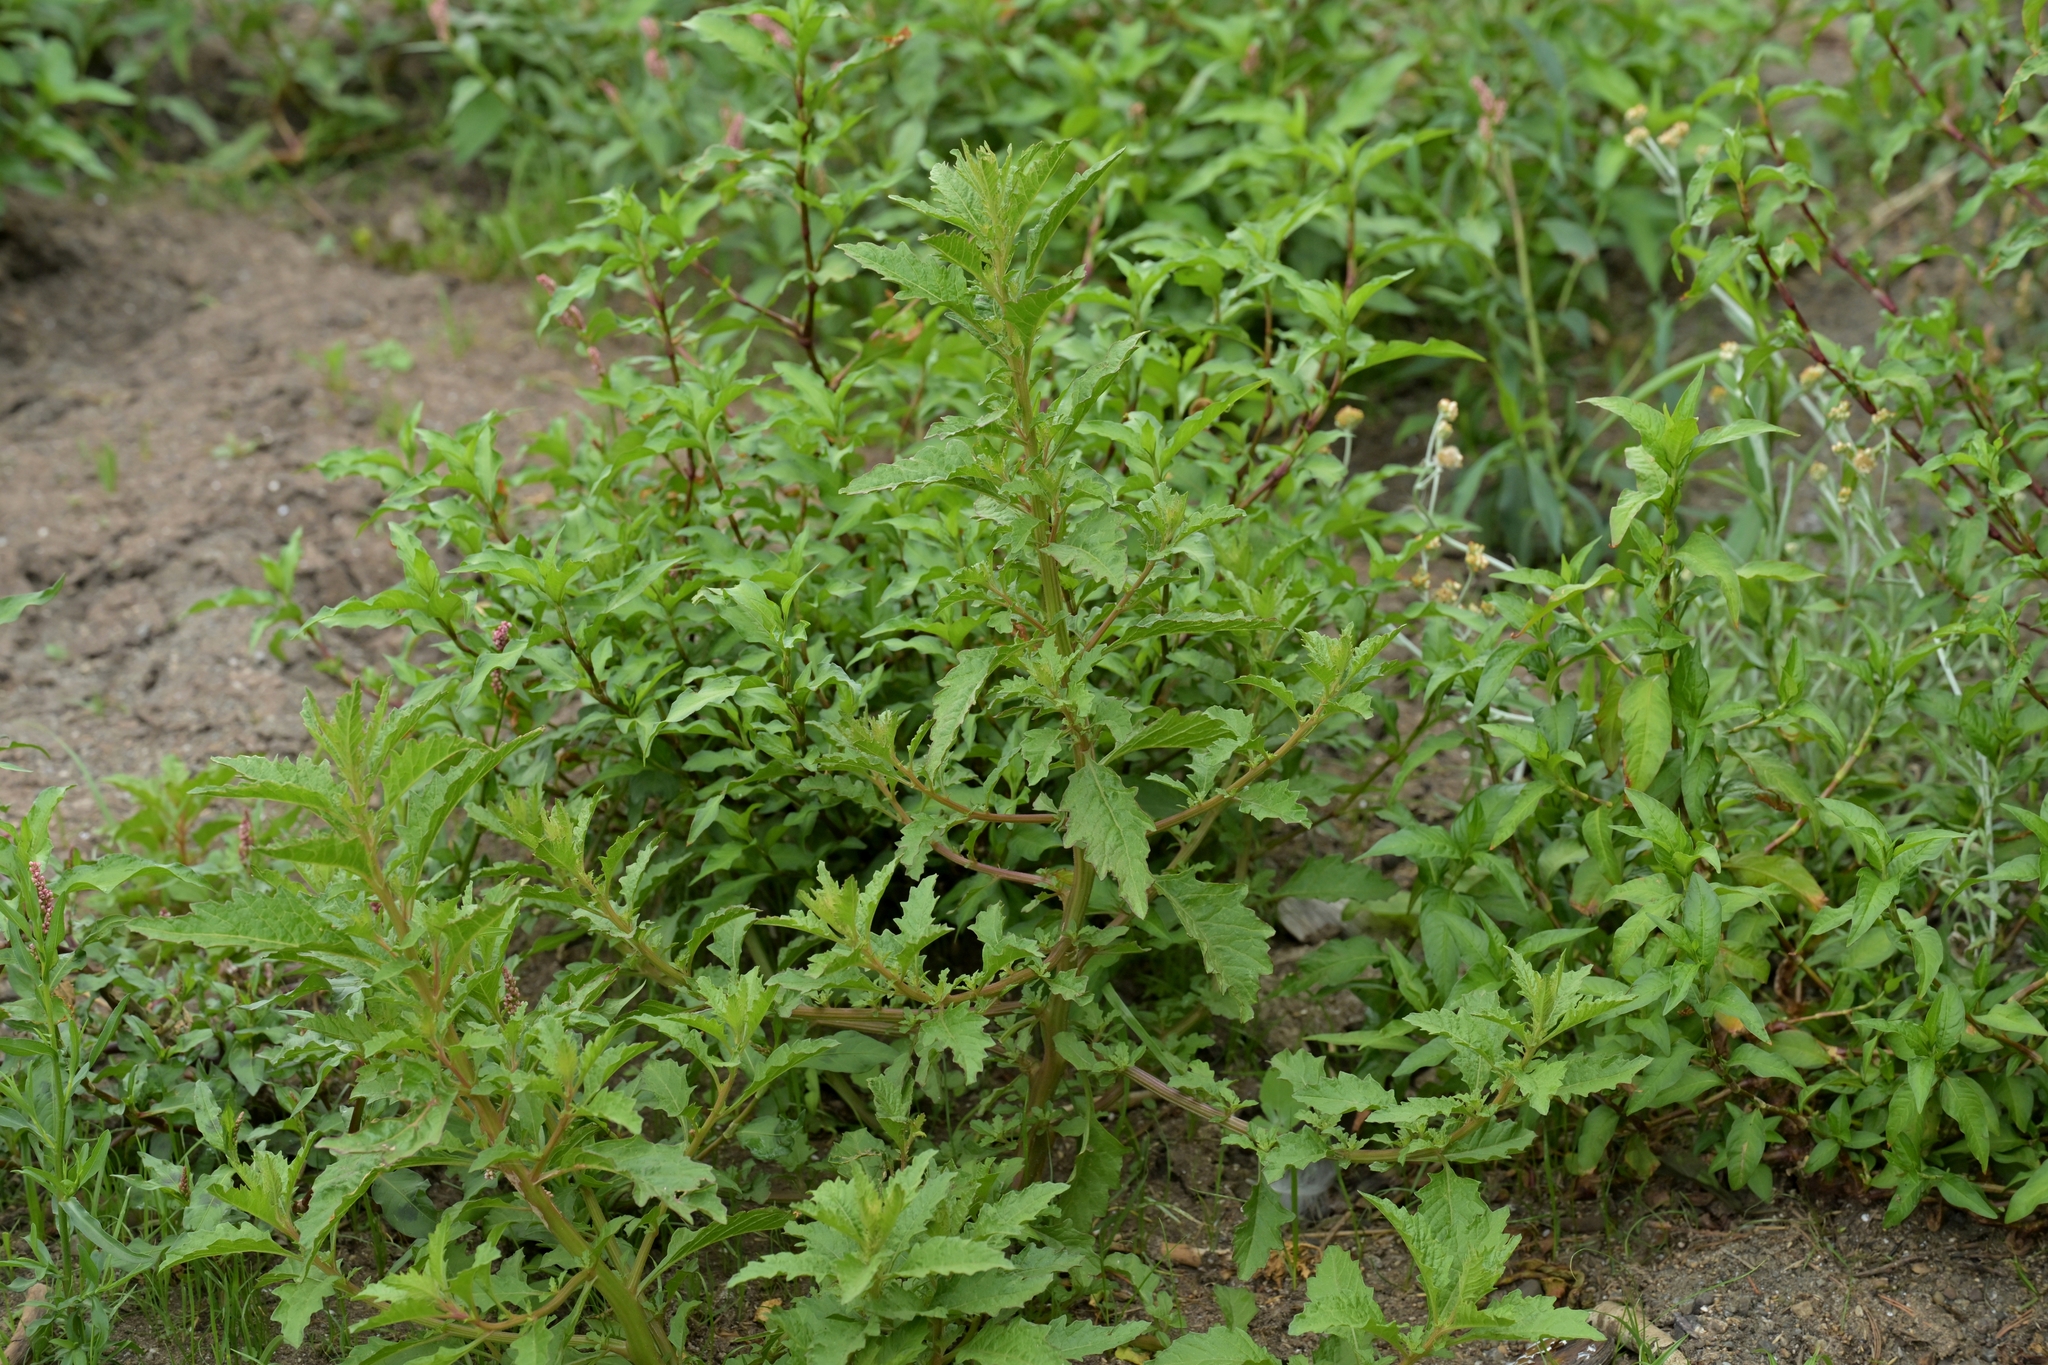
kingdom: Plantae
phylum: Tracheophyta
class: Magnoliopsida
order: Caryophyllales
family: Amaranthaceae
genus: Dysphania
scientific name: Dysphania ambrosioides
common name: Wormseed
